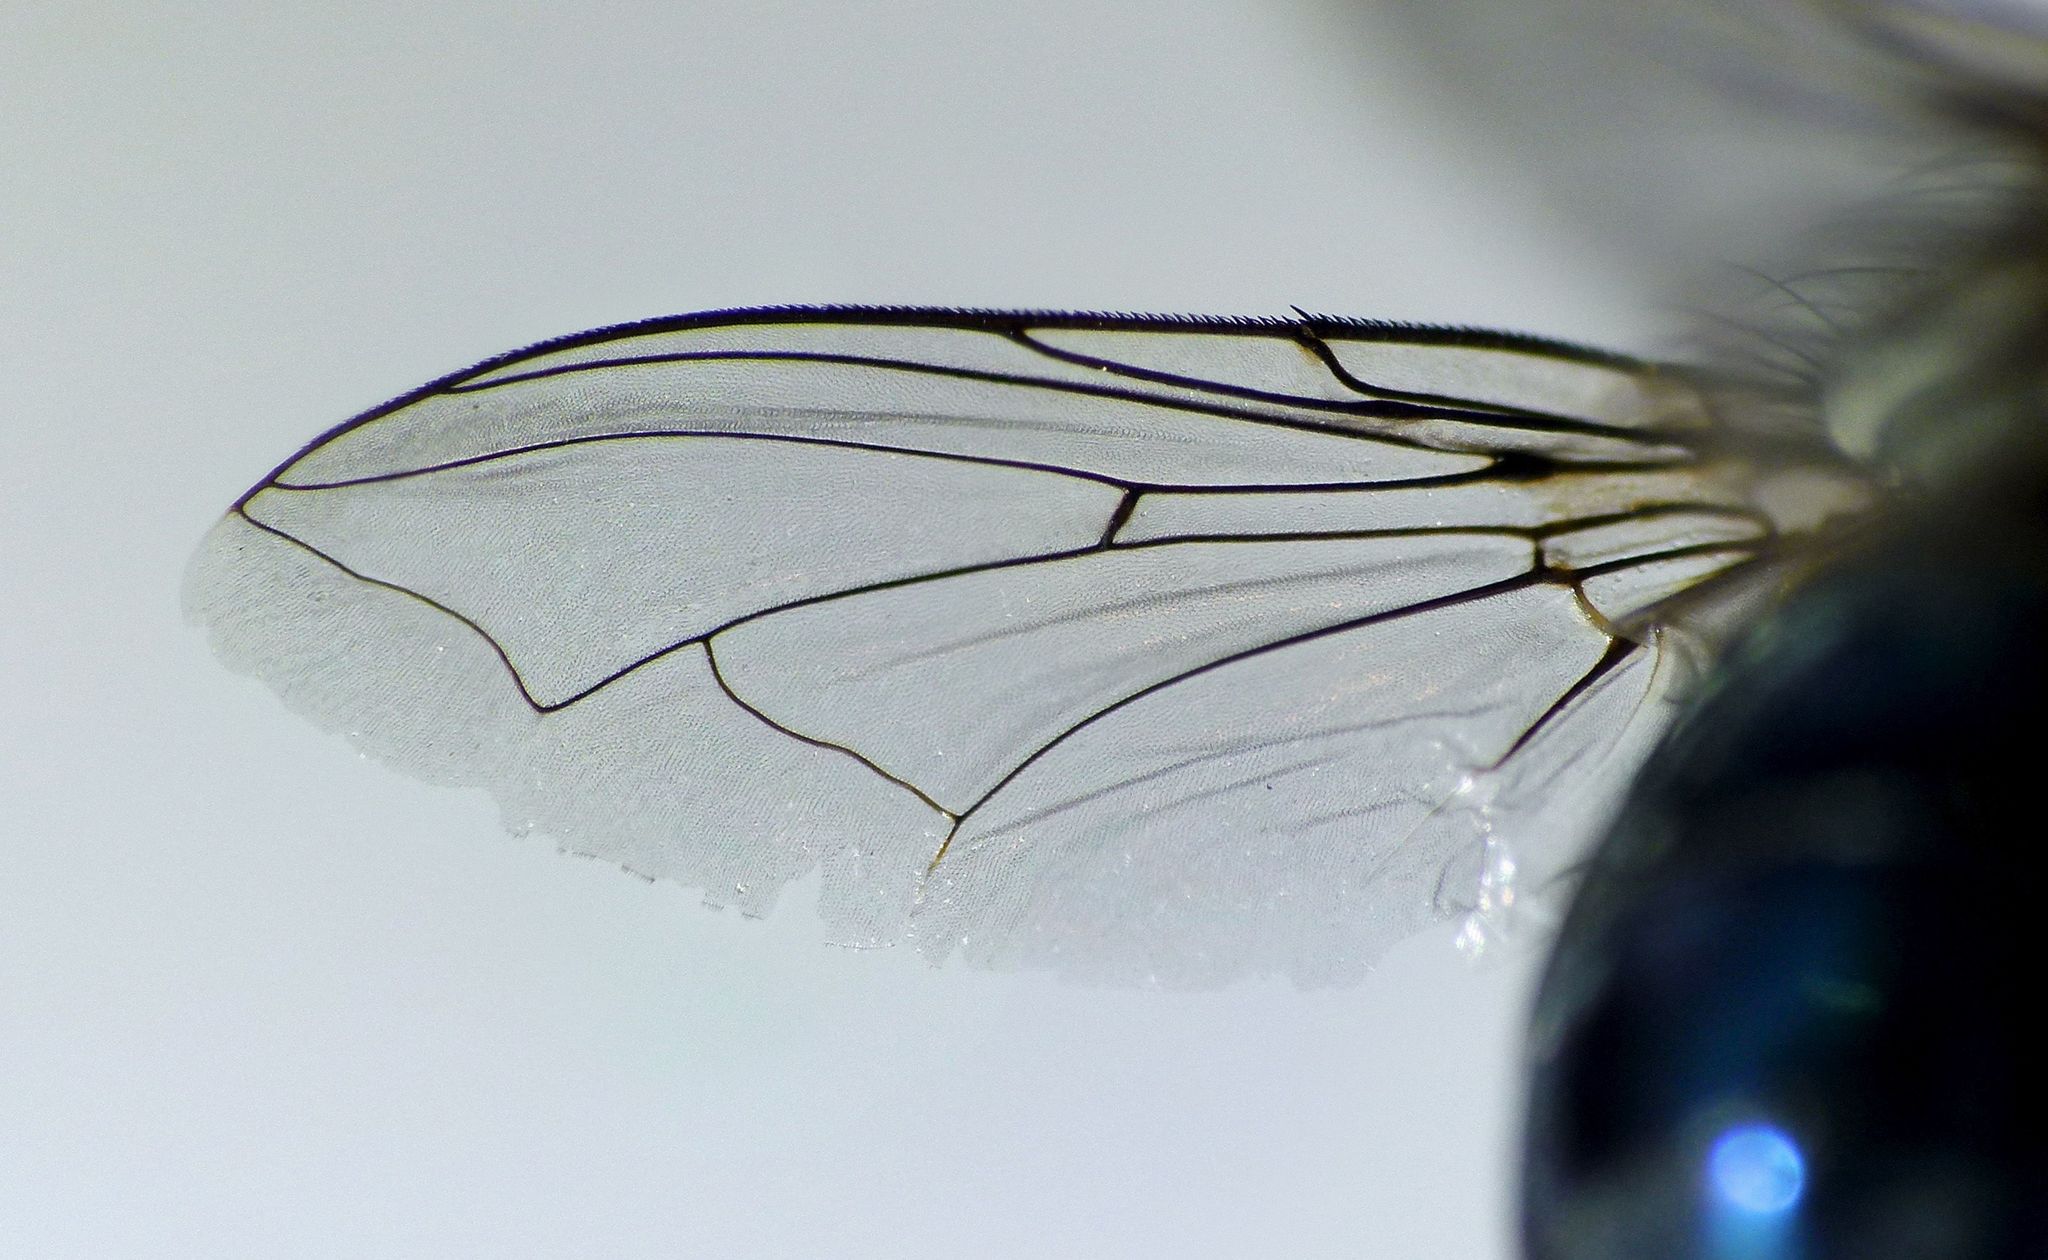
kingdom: Animalia
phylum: Arthropoda
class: Insecta
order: Diptera
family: Calliphoridae
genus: Ptilonesia
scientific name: Ptilonesia auronotata
